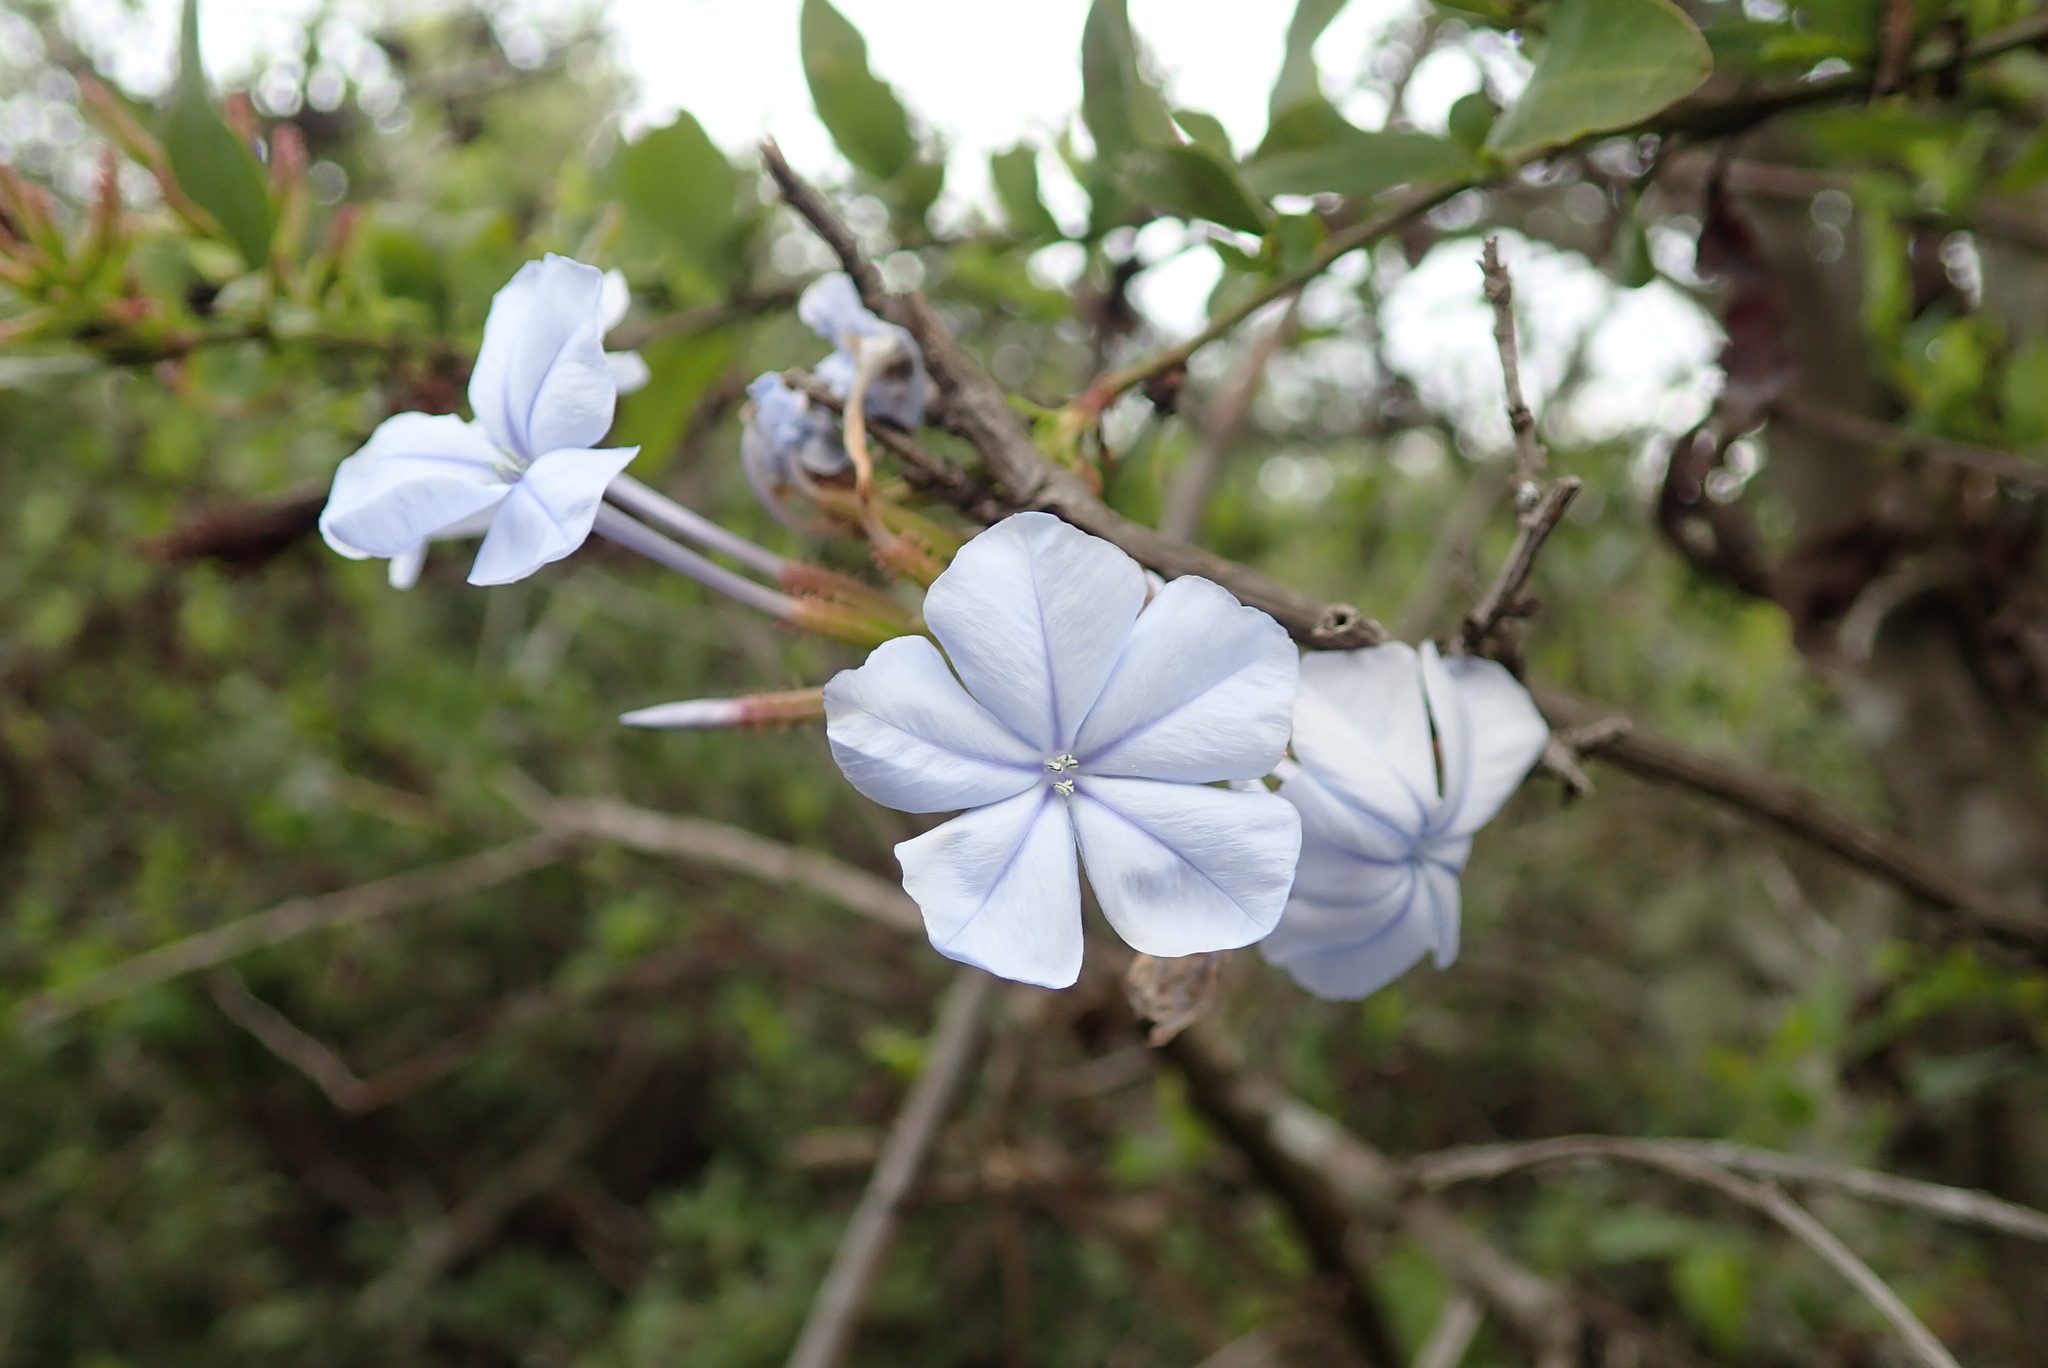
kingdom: Plantae
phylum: Tracheophyta
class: Magnoliopsida
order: Caryophyllales
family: Plumbaginaceae
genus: Plumbago
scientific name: Plumbago auriculata
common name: Cape leadwort
